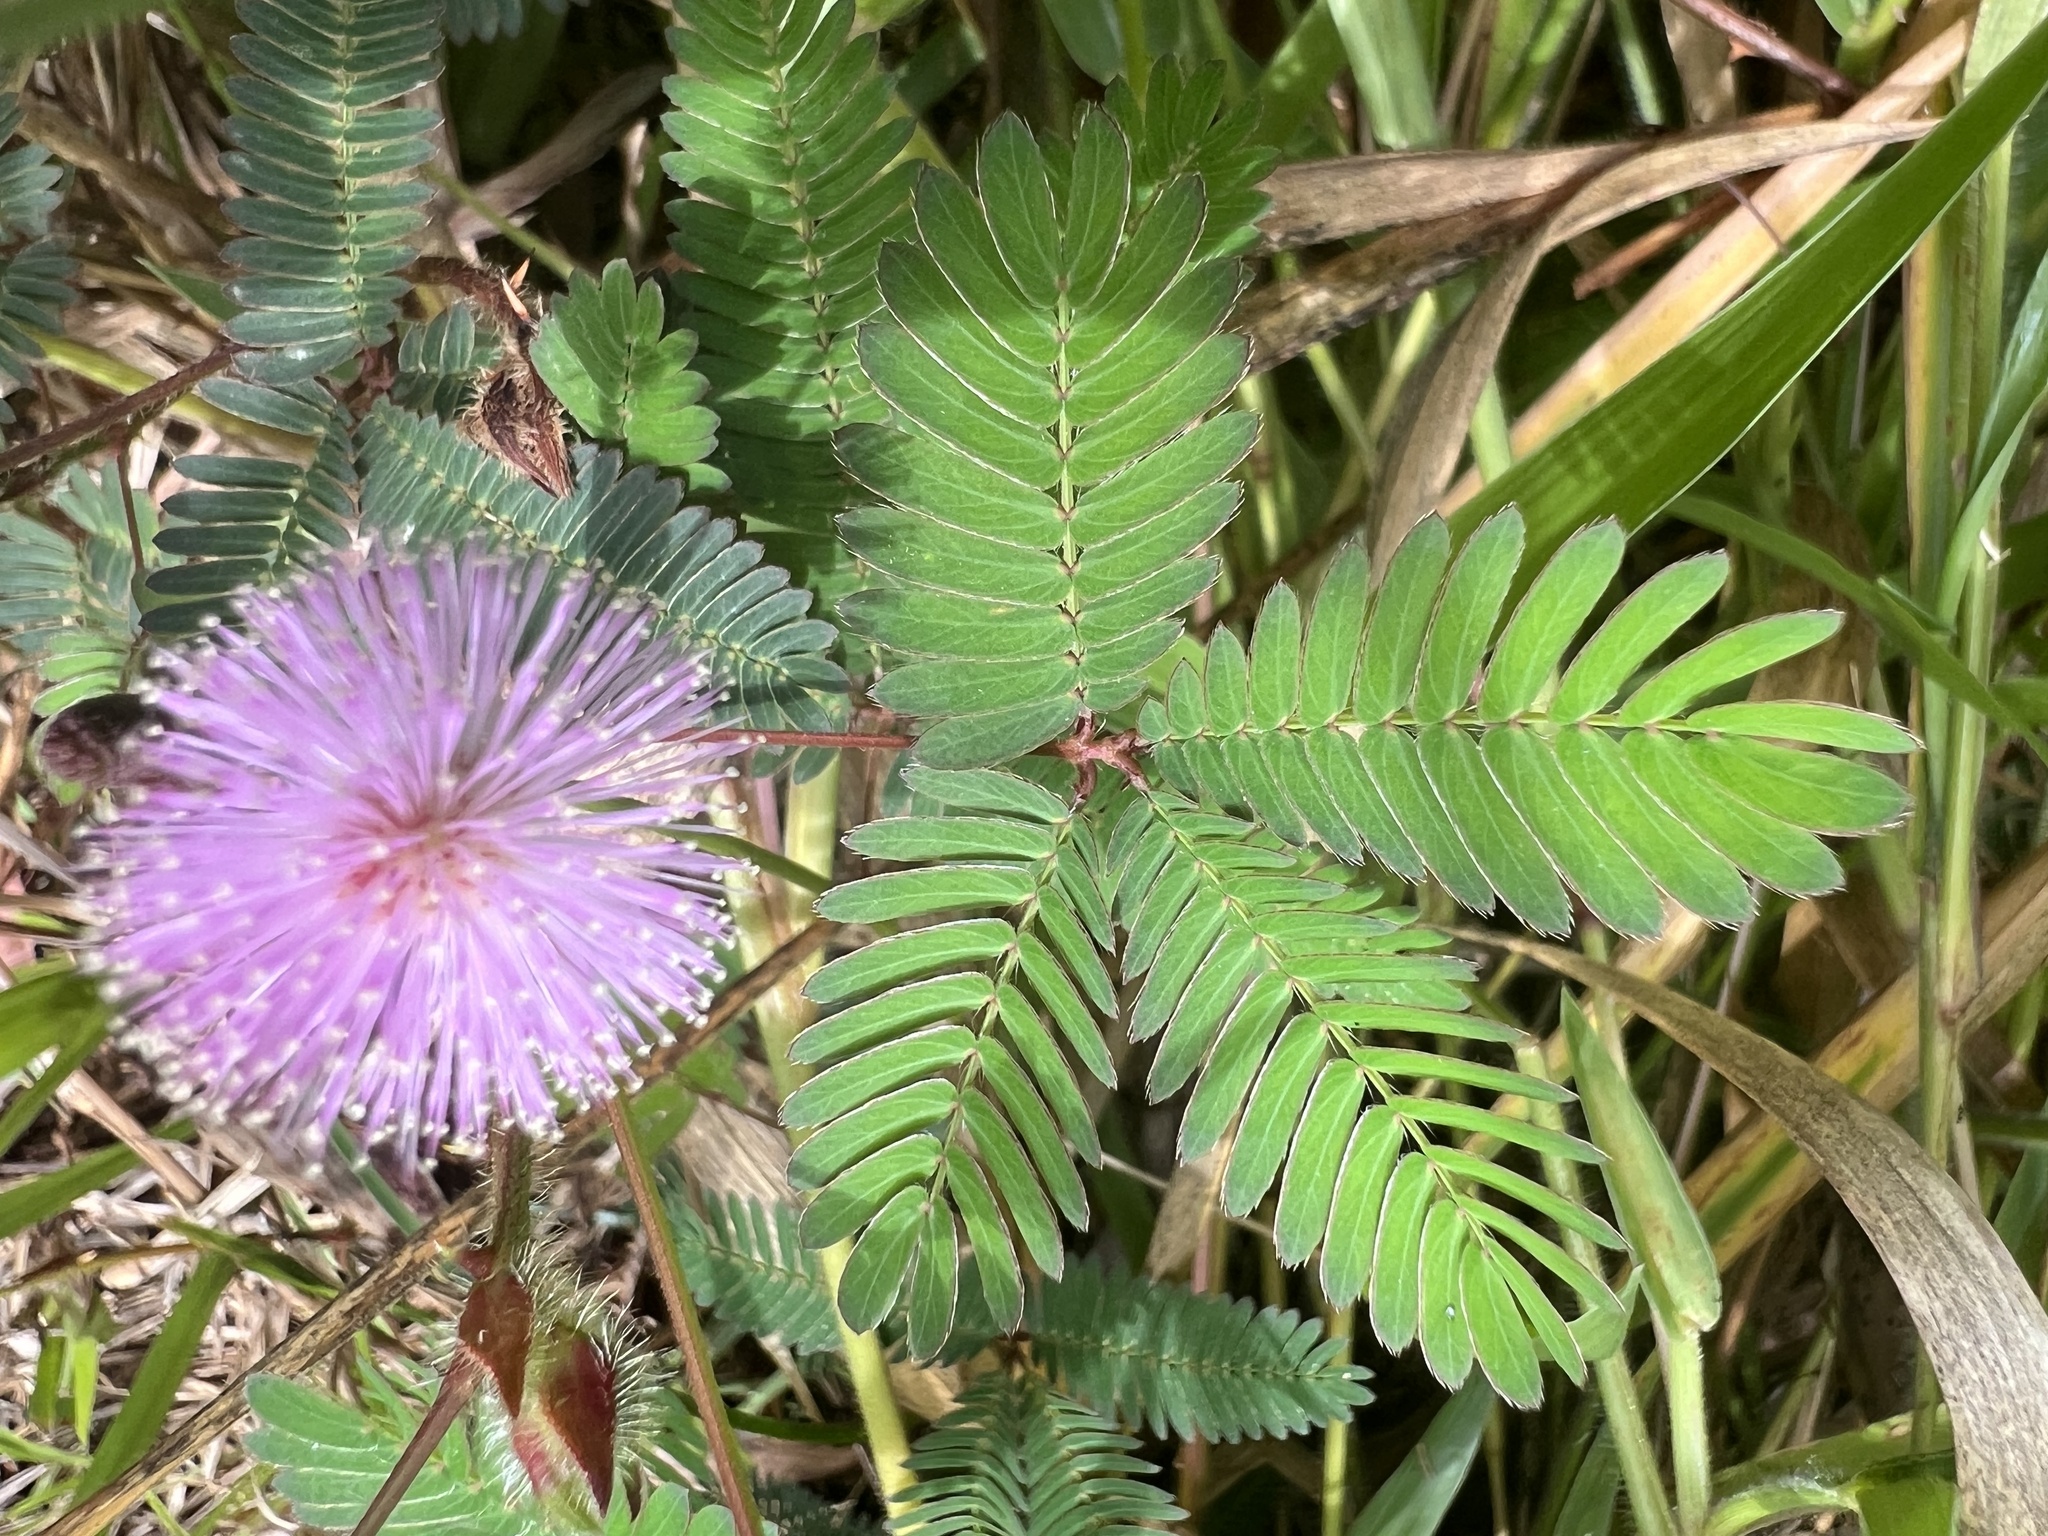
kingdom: Plantae
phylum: Tracheophyta
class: Magnoliopsida
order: Fabales
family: Fabaceae
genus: Mimosa
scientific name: Mimosa pudica
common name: Sensitive plant
